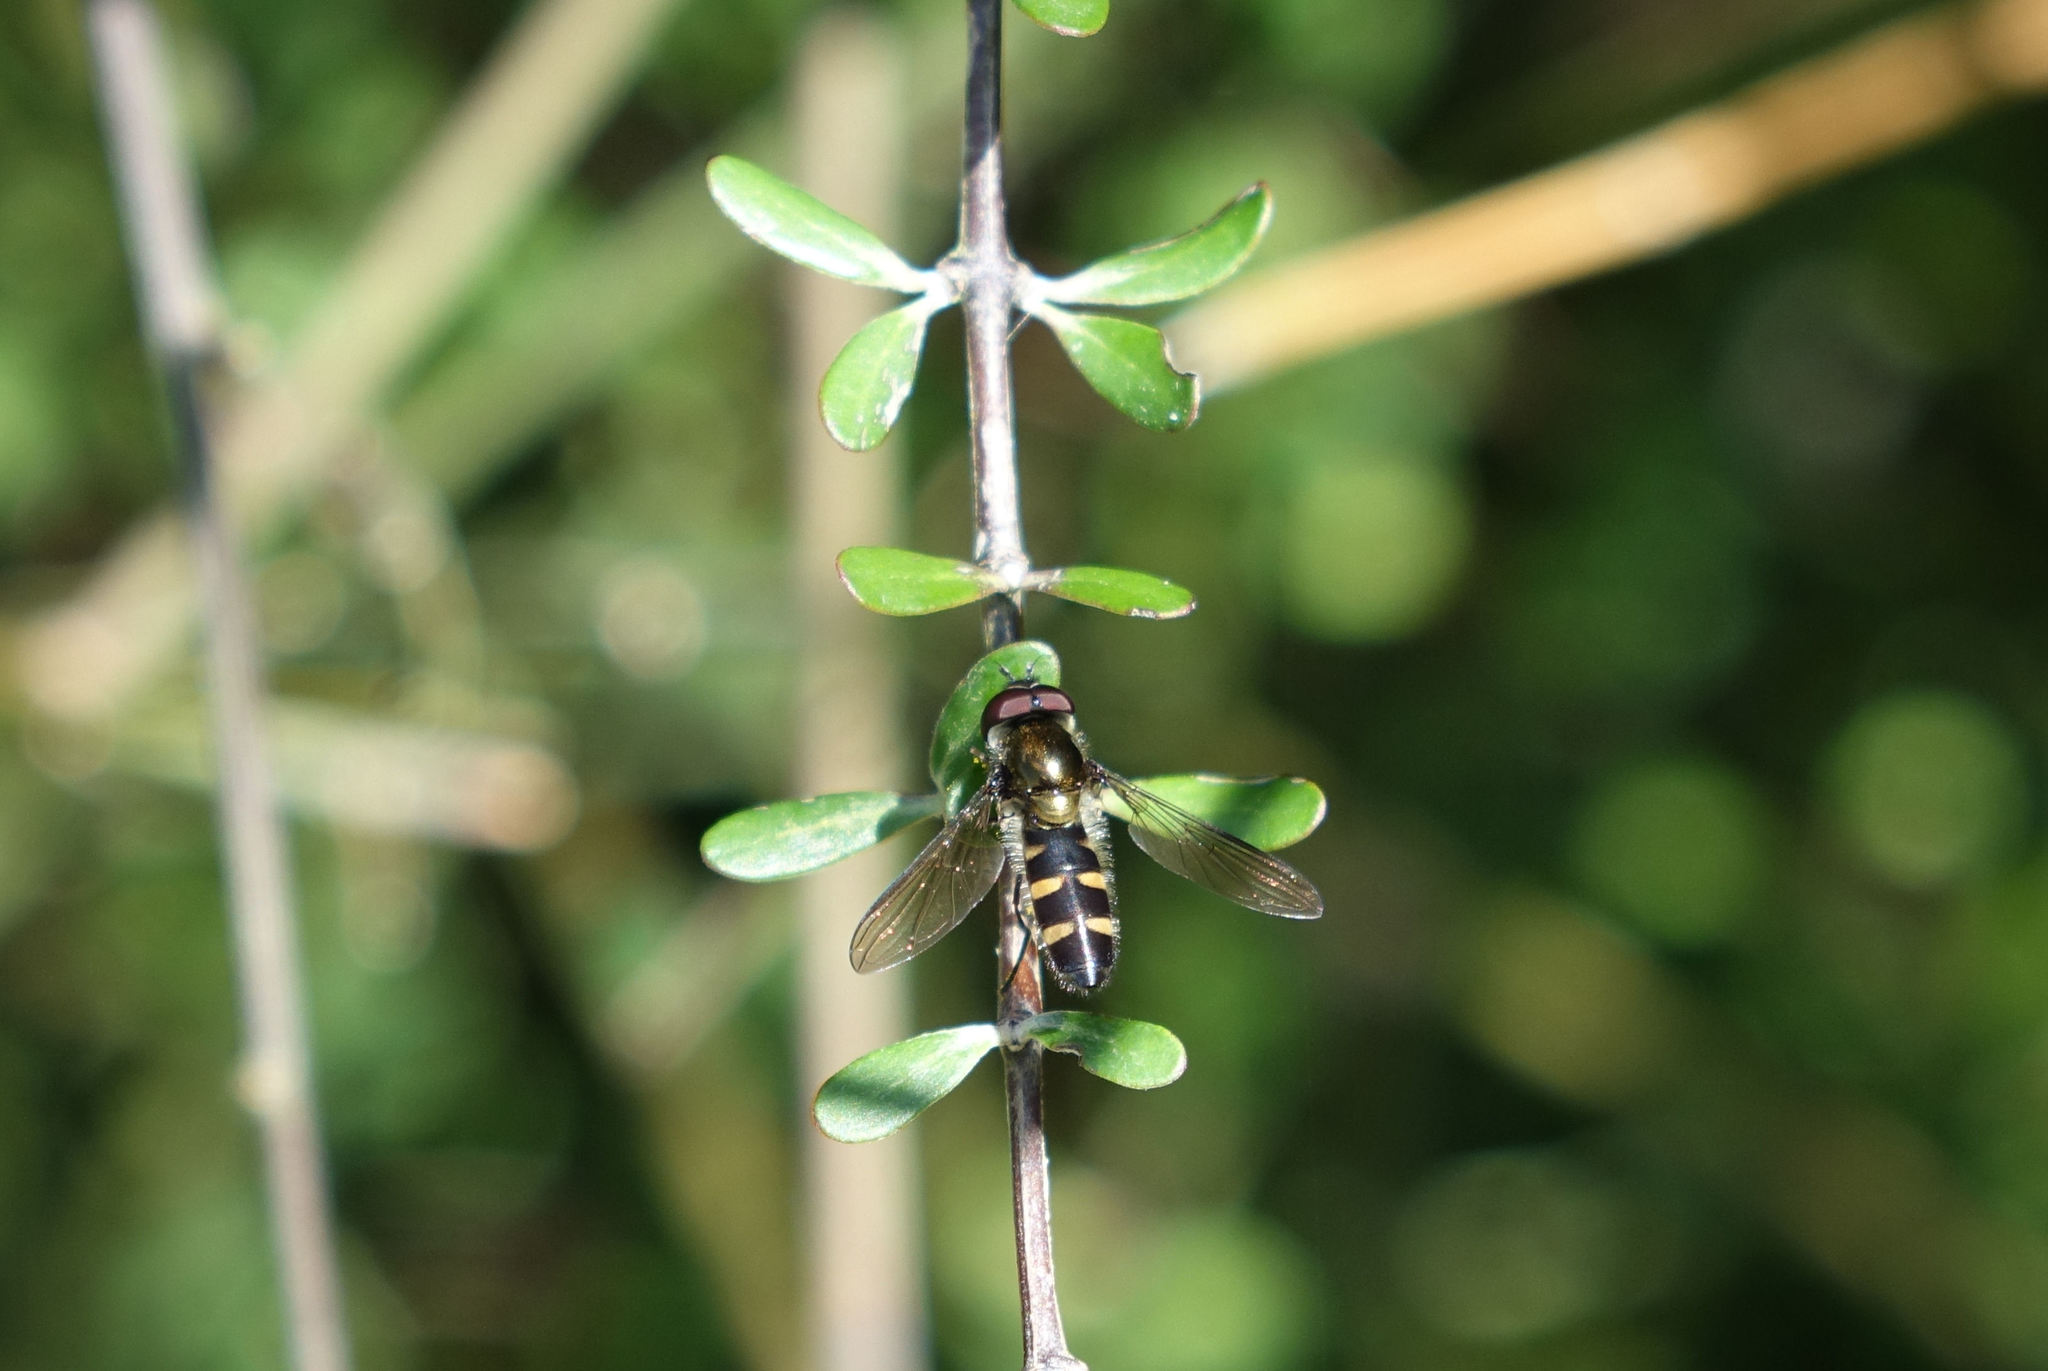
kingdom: Animalia
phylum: Arthropoda
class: Insecta
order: Diptera
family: Syrphidae
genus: Melangyna
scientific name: Melangyna novaezelandiae
